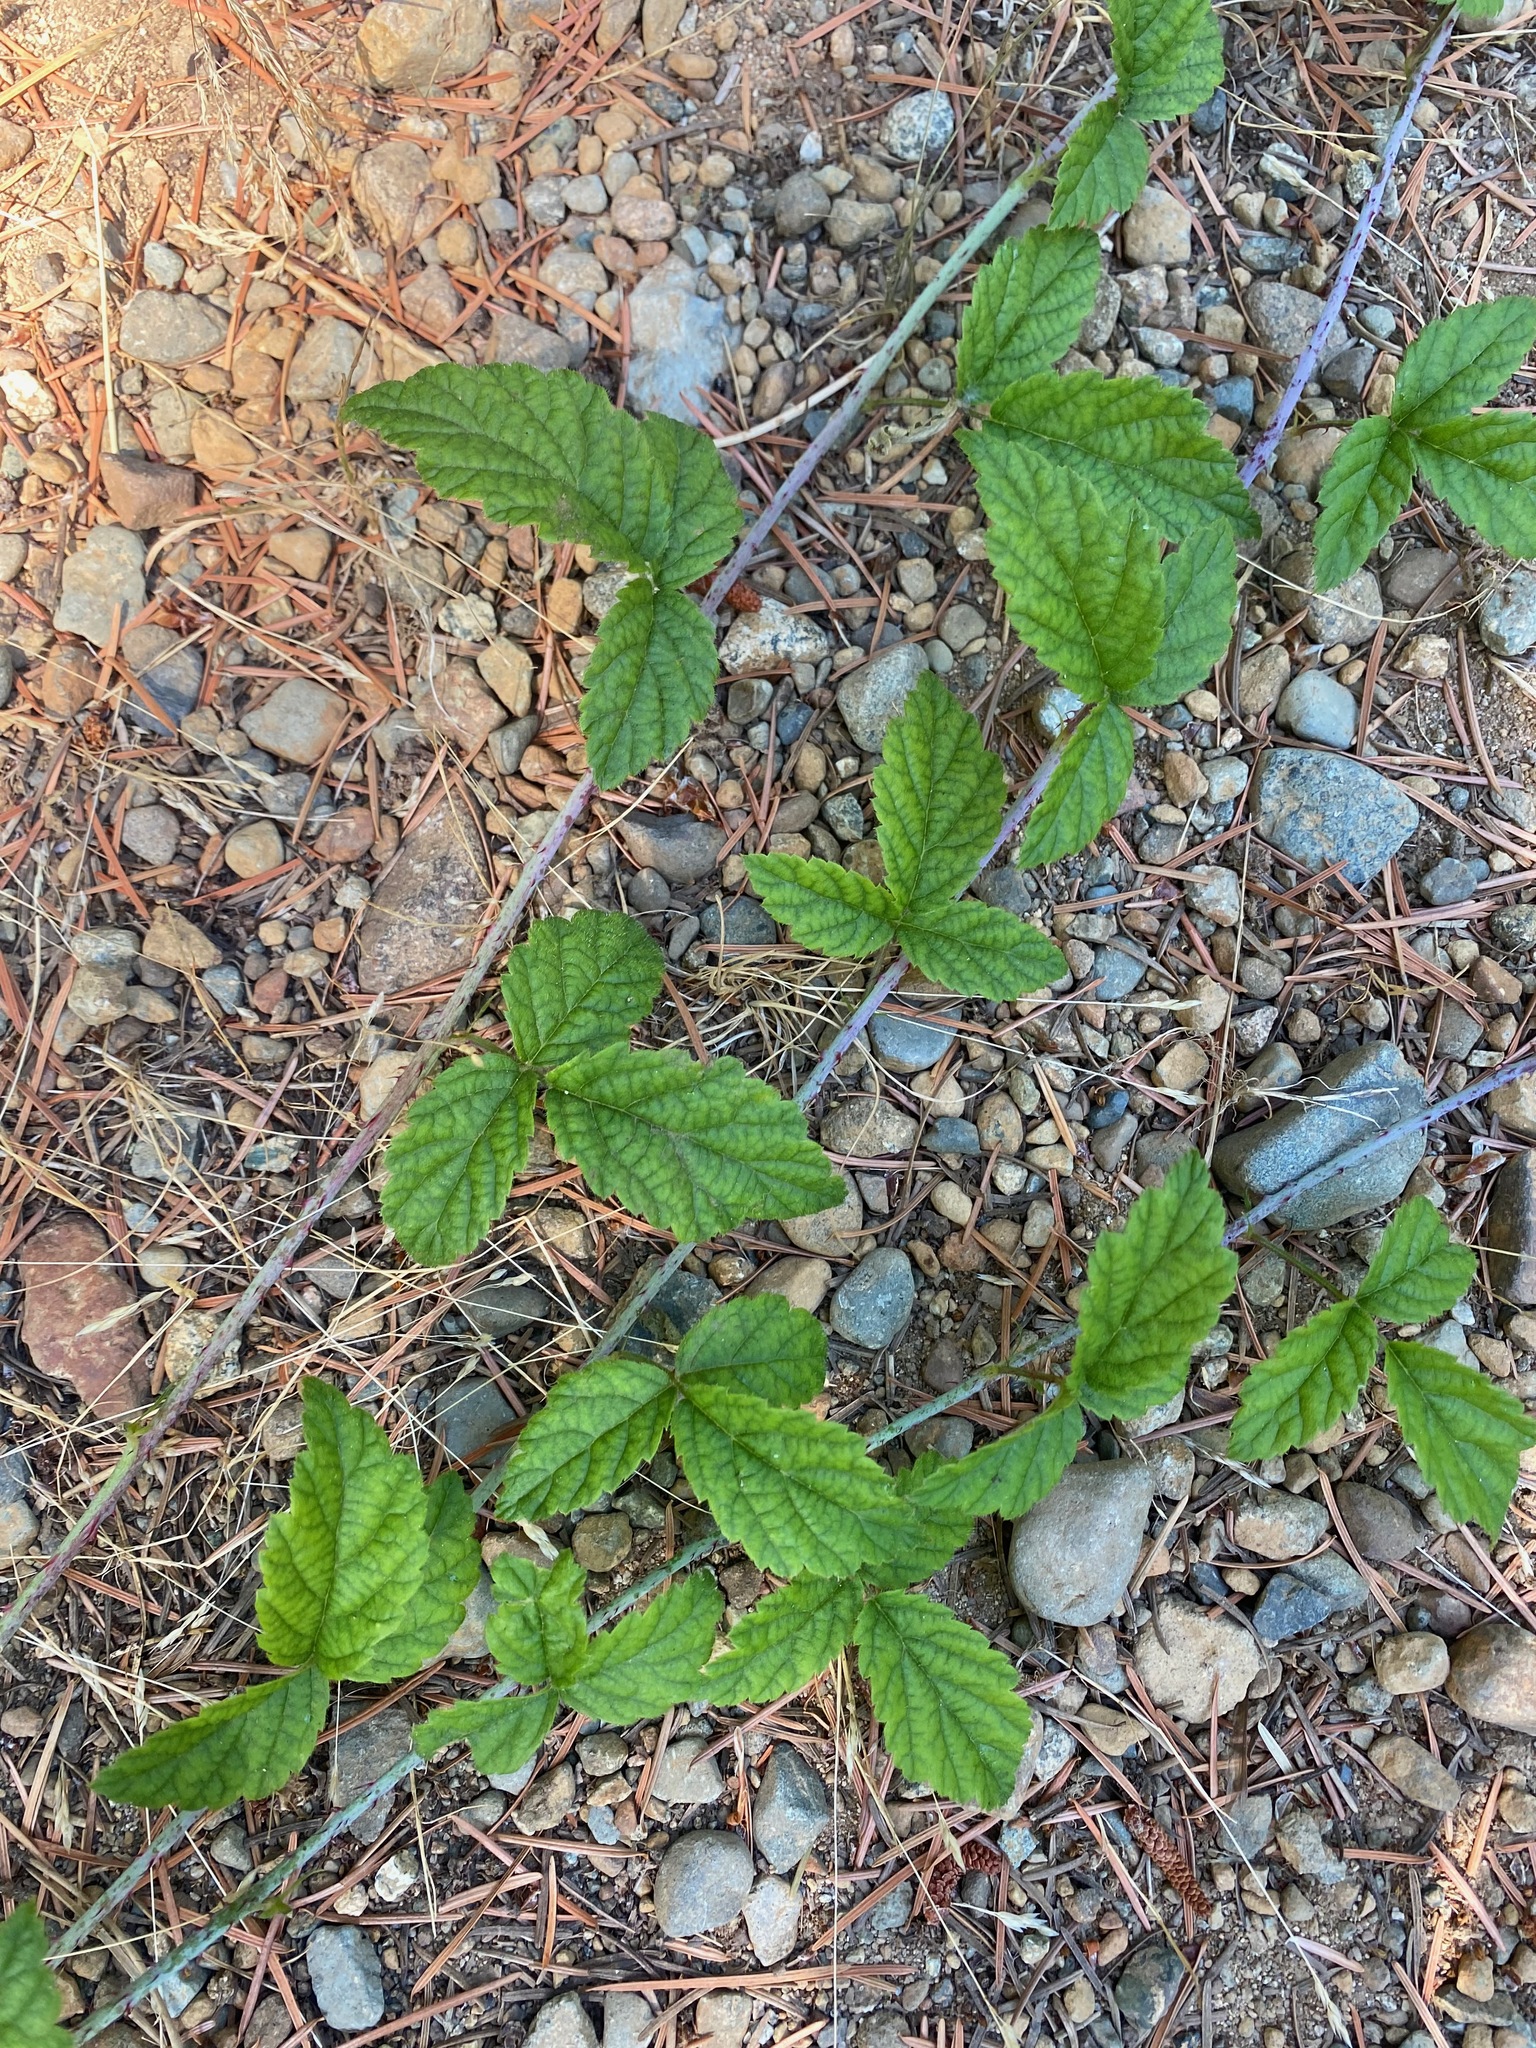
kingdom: Plantae
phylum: Tracheophyta
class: Magnoliopsida
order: Rosales
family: Rosaceae
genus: Rubus
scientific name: Rubus ursinus
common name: Pacific blackberry
